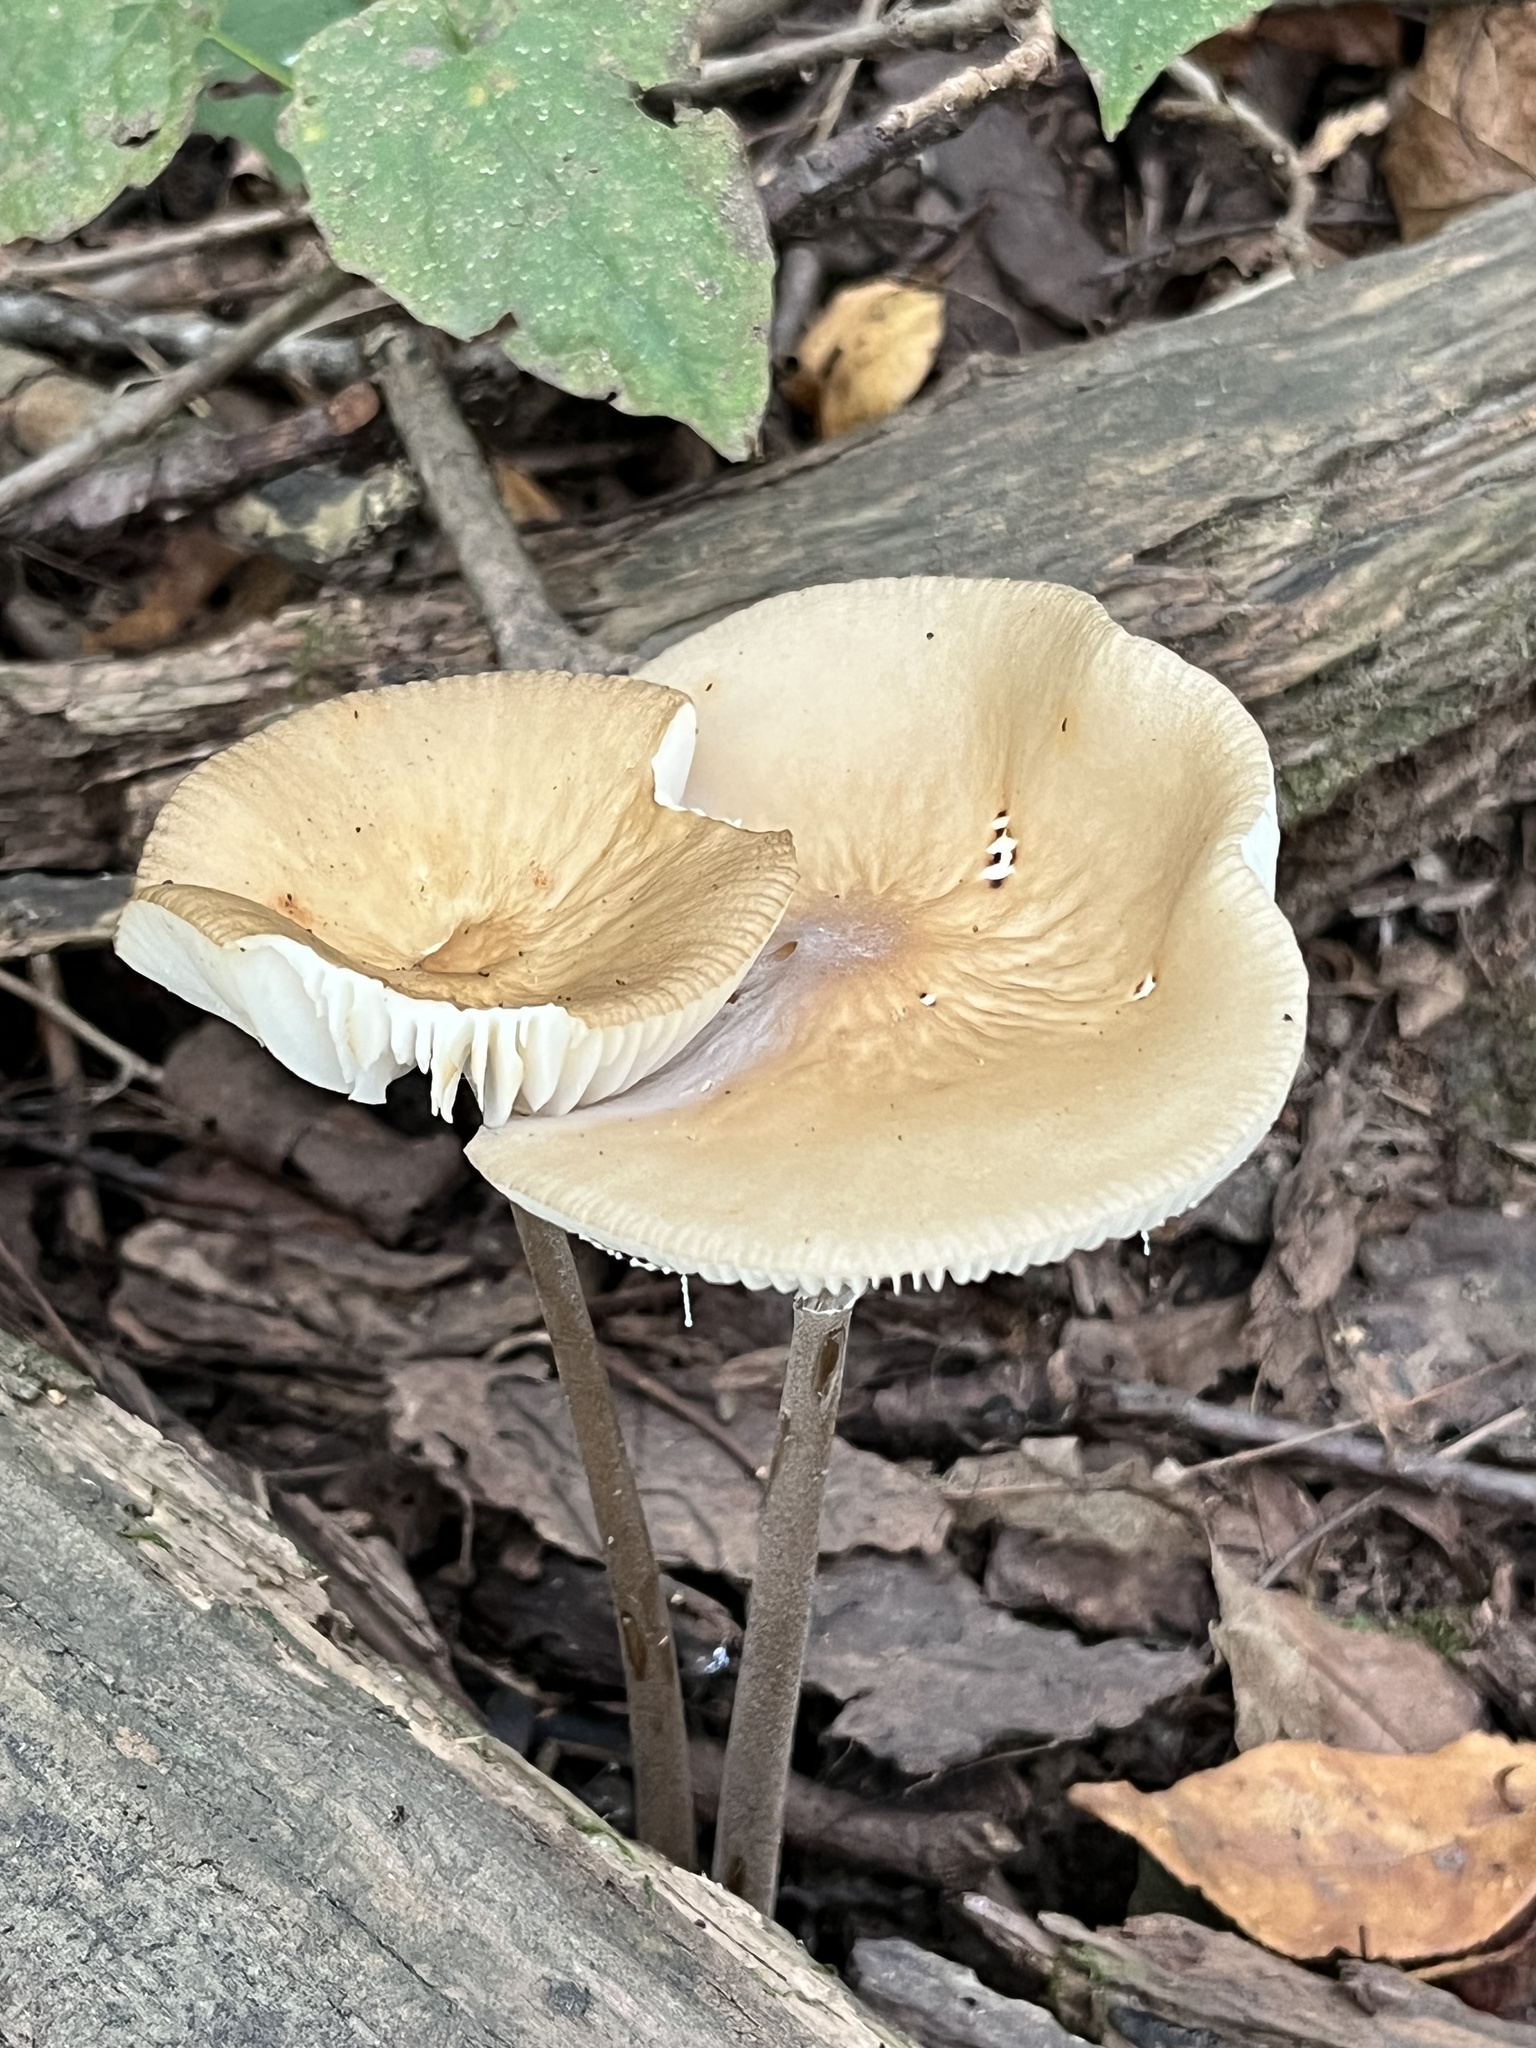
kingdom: Fungi
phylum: Basidiomycota
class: Agaricomycetes
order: Agaricales
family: Physalacriaceae
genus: Hymenopellis
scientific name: Hymenopellis furfuracea
